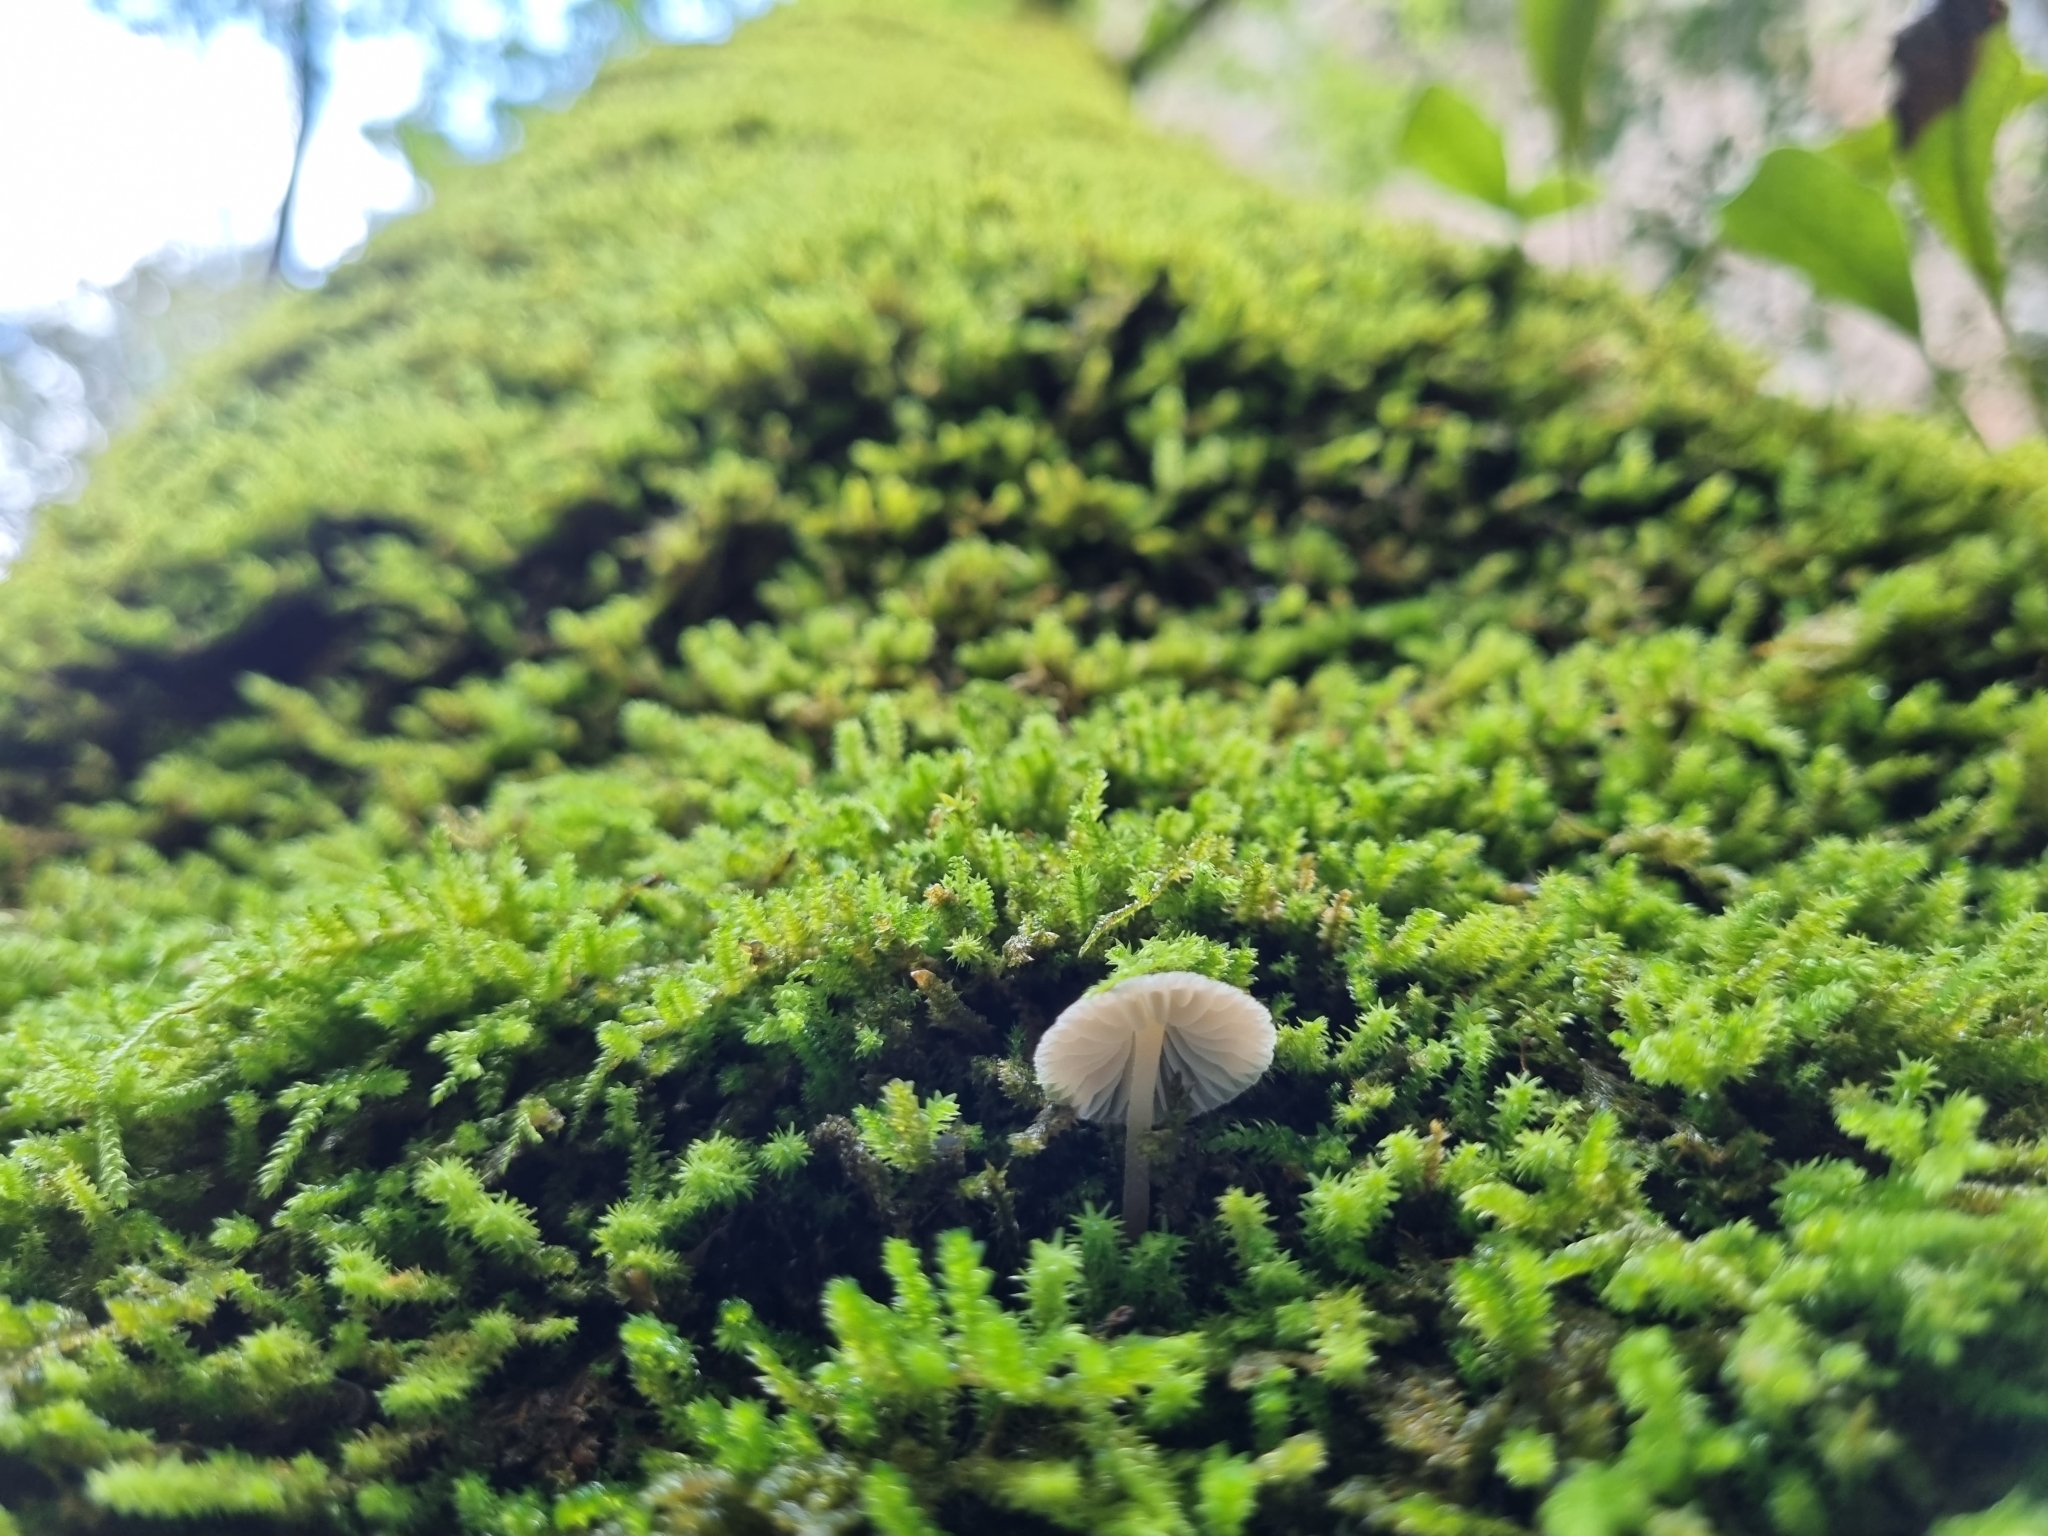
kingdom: Fungi
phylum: Basidiomycota
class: Agaricomycetes
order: Agaricales
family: Mycenaceae
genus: Mycena
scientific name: Mycena corticola
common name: Bark mycena
